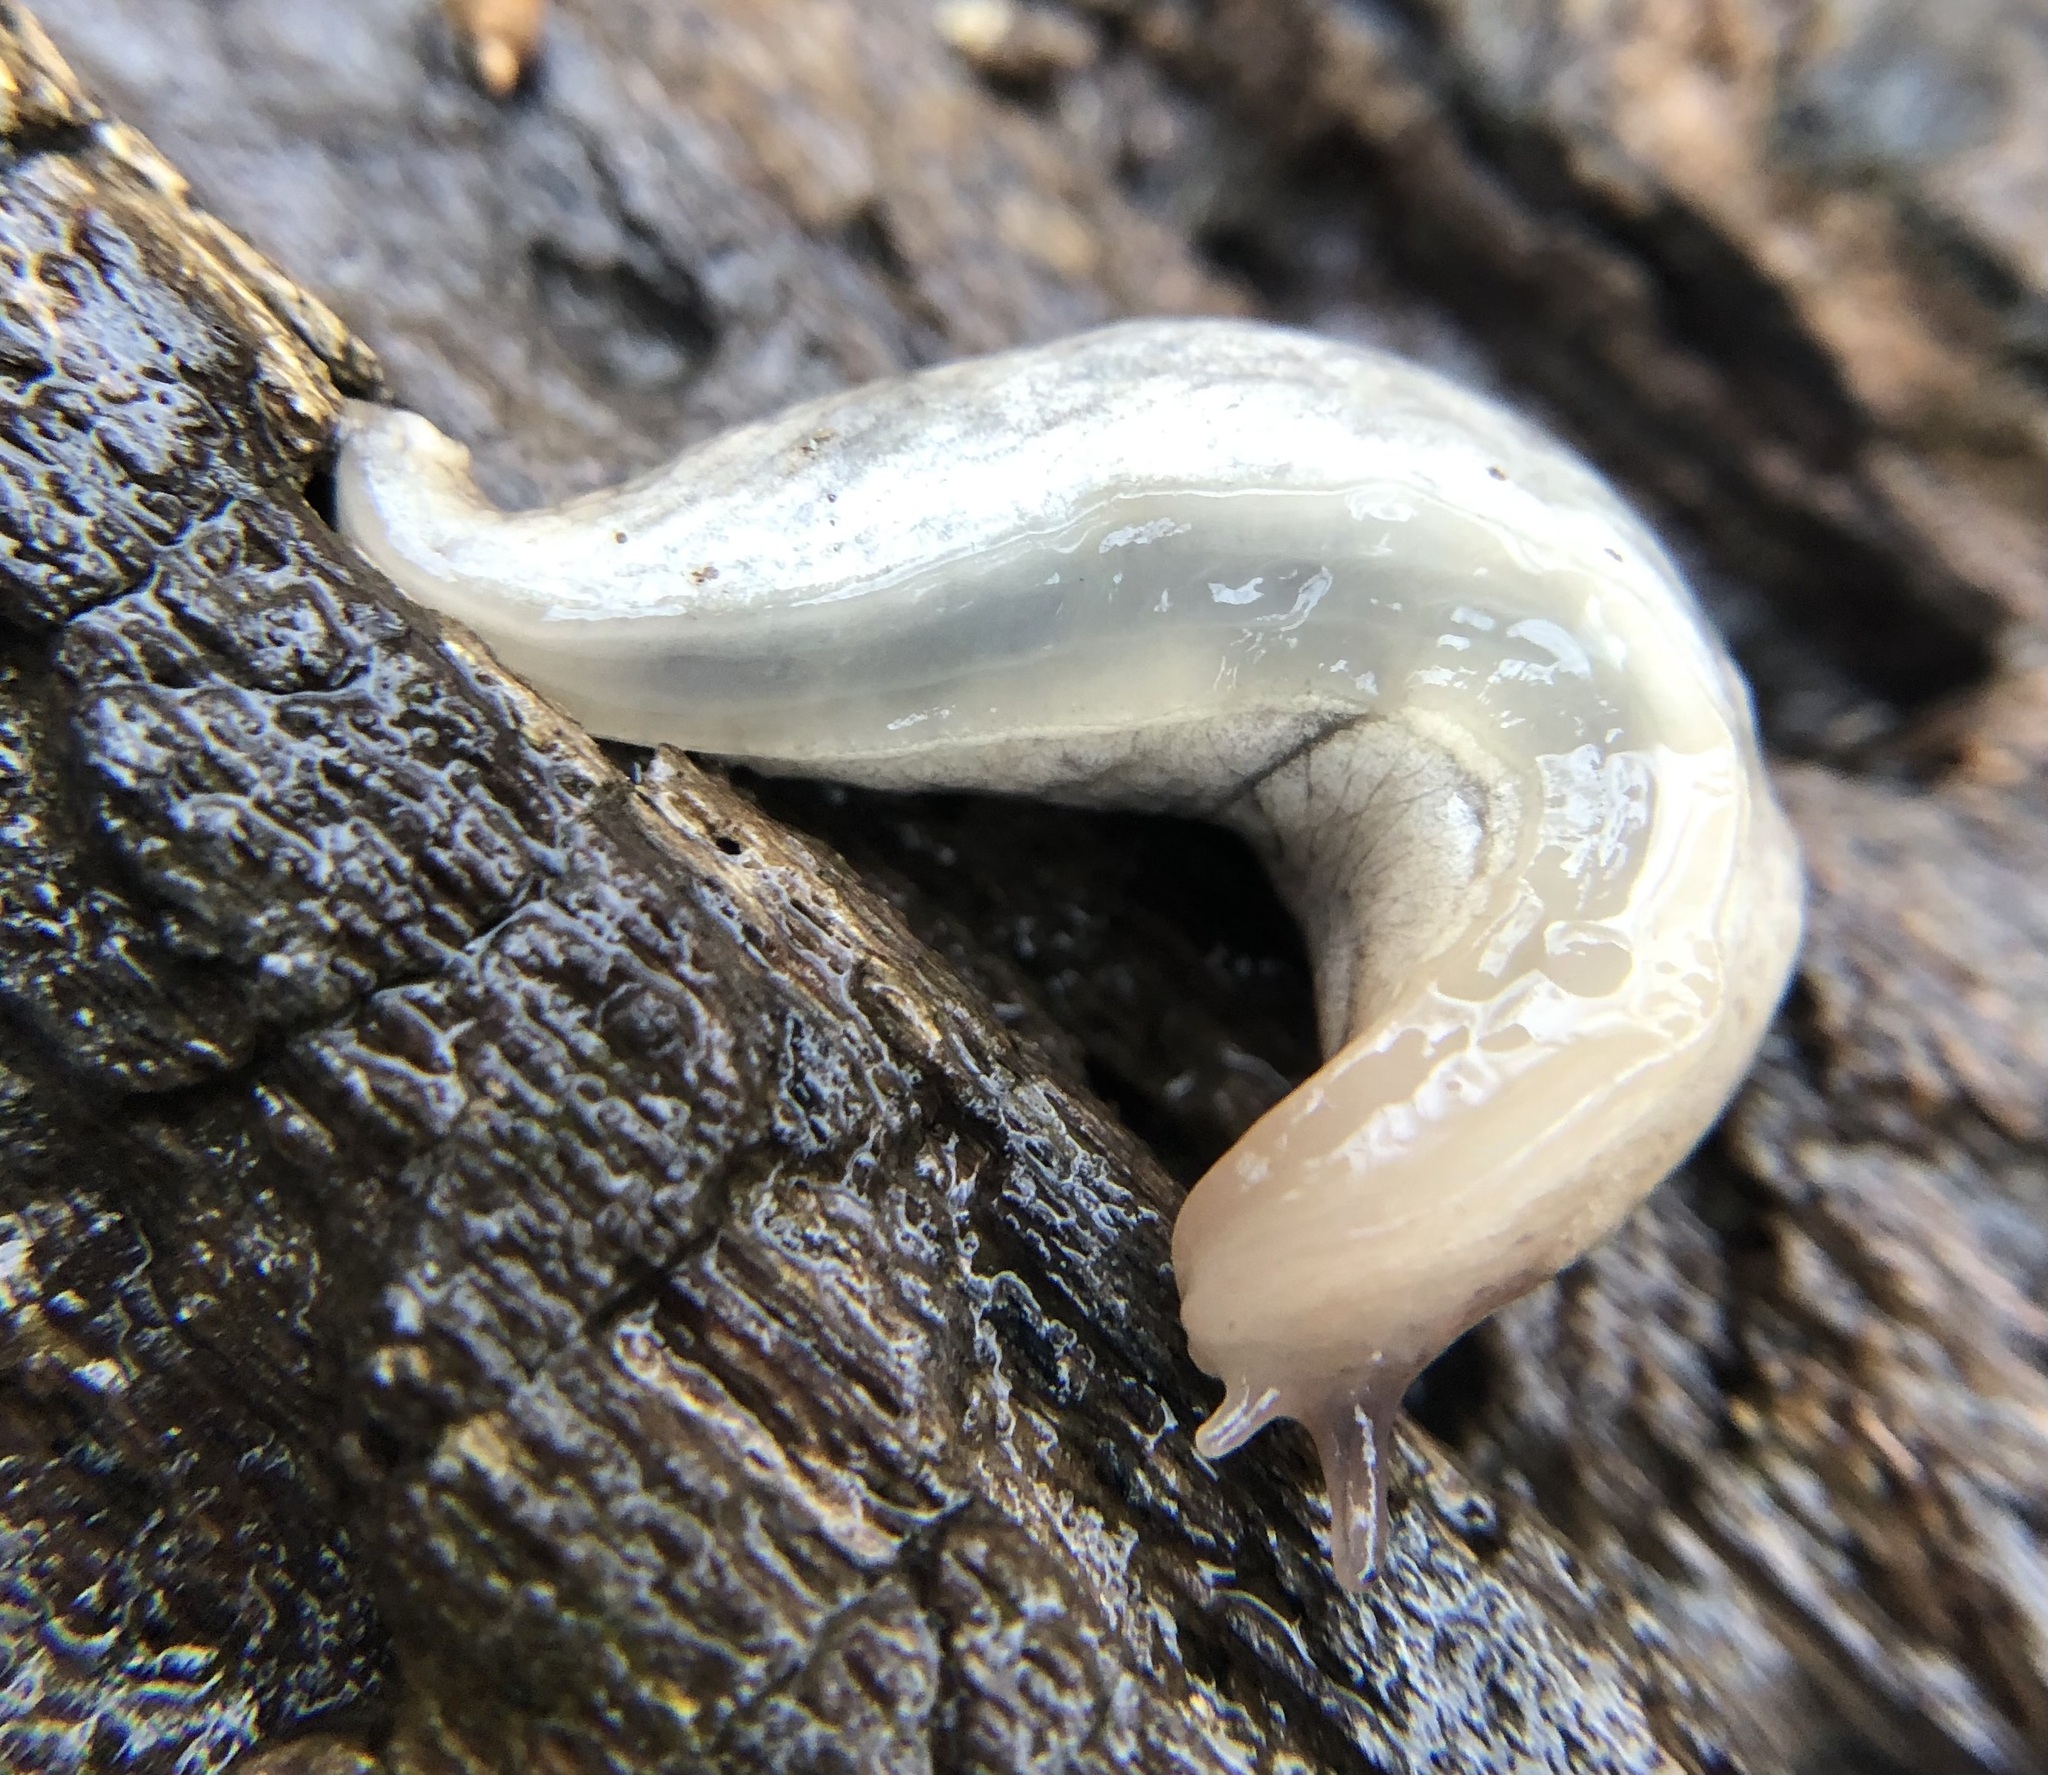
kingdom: Animalia
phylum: Mollusca
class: Gastropoda
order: Stylommatophora
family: Agriolimacidae
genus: Deroceras
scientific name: Deroceras reticulatum
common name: Gray field slug
